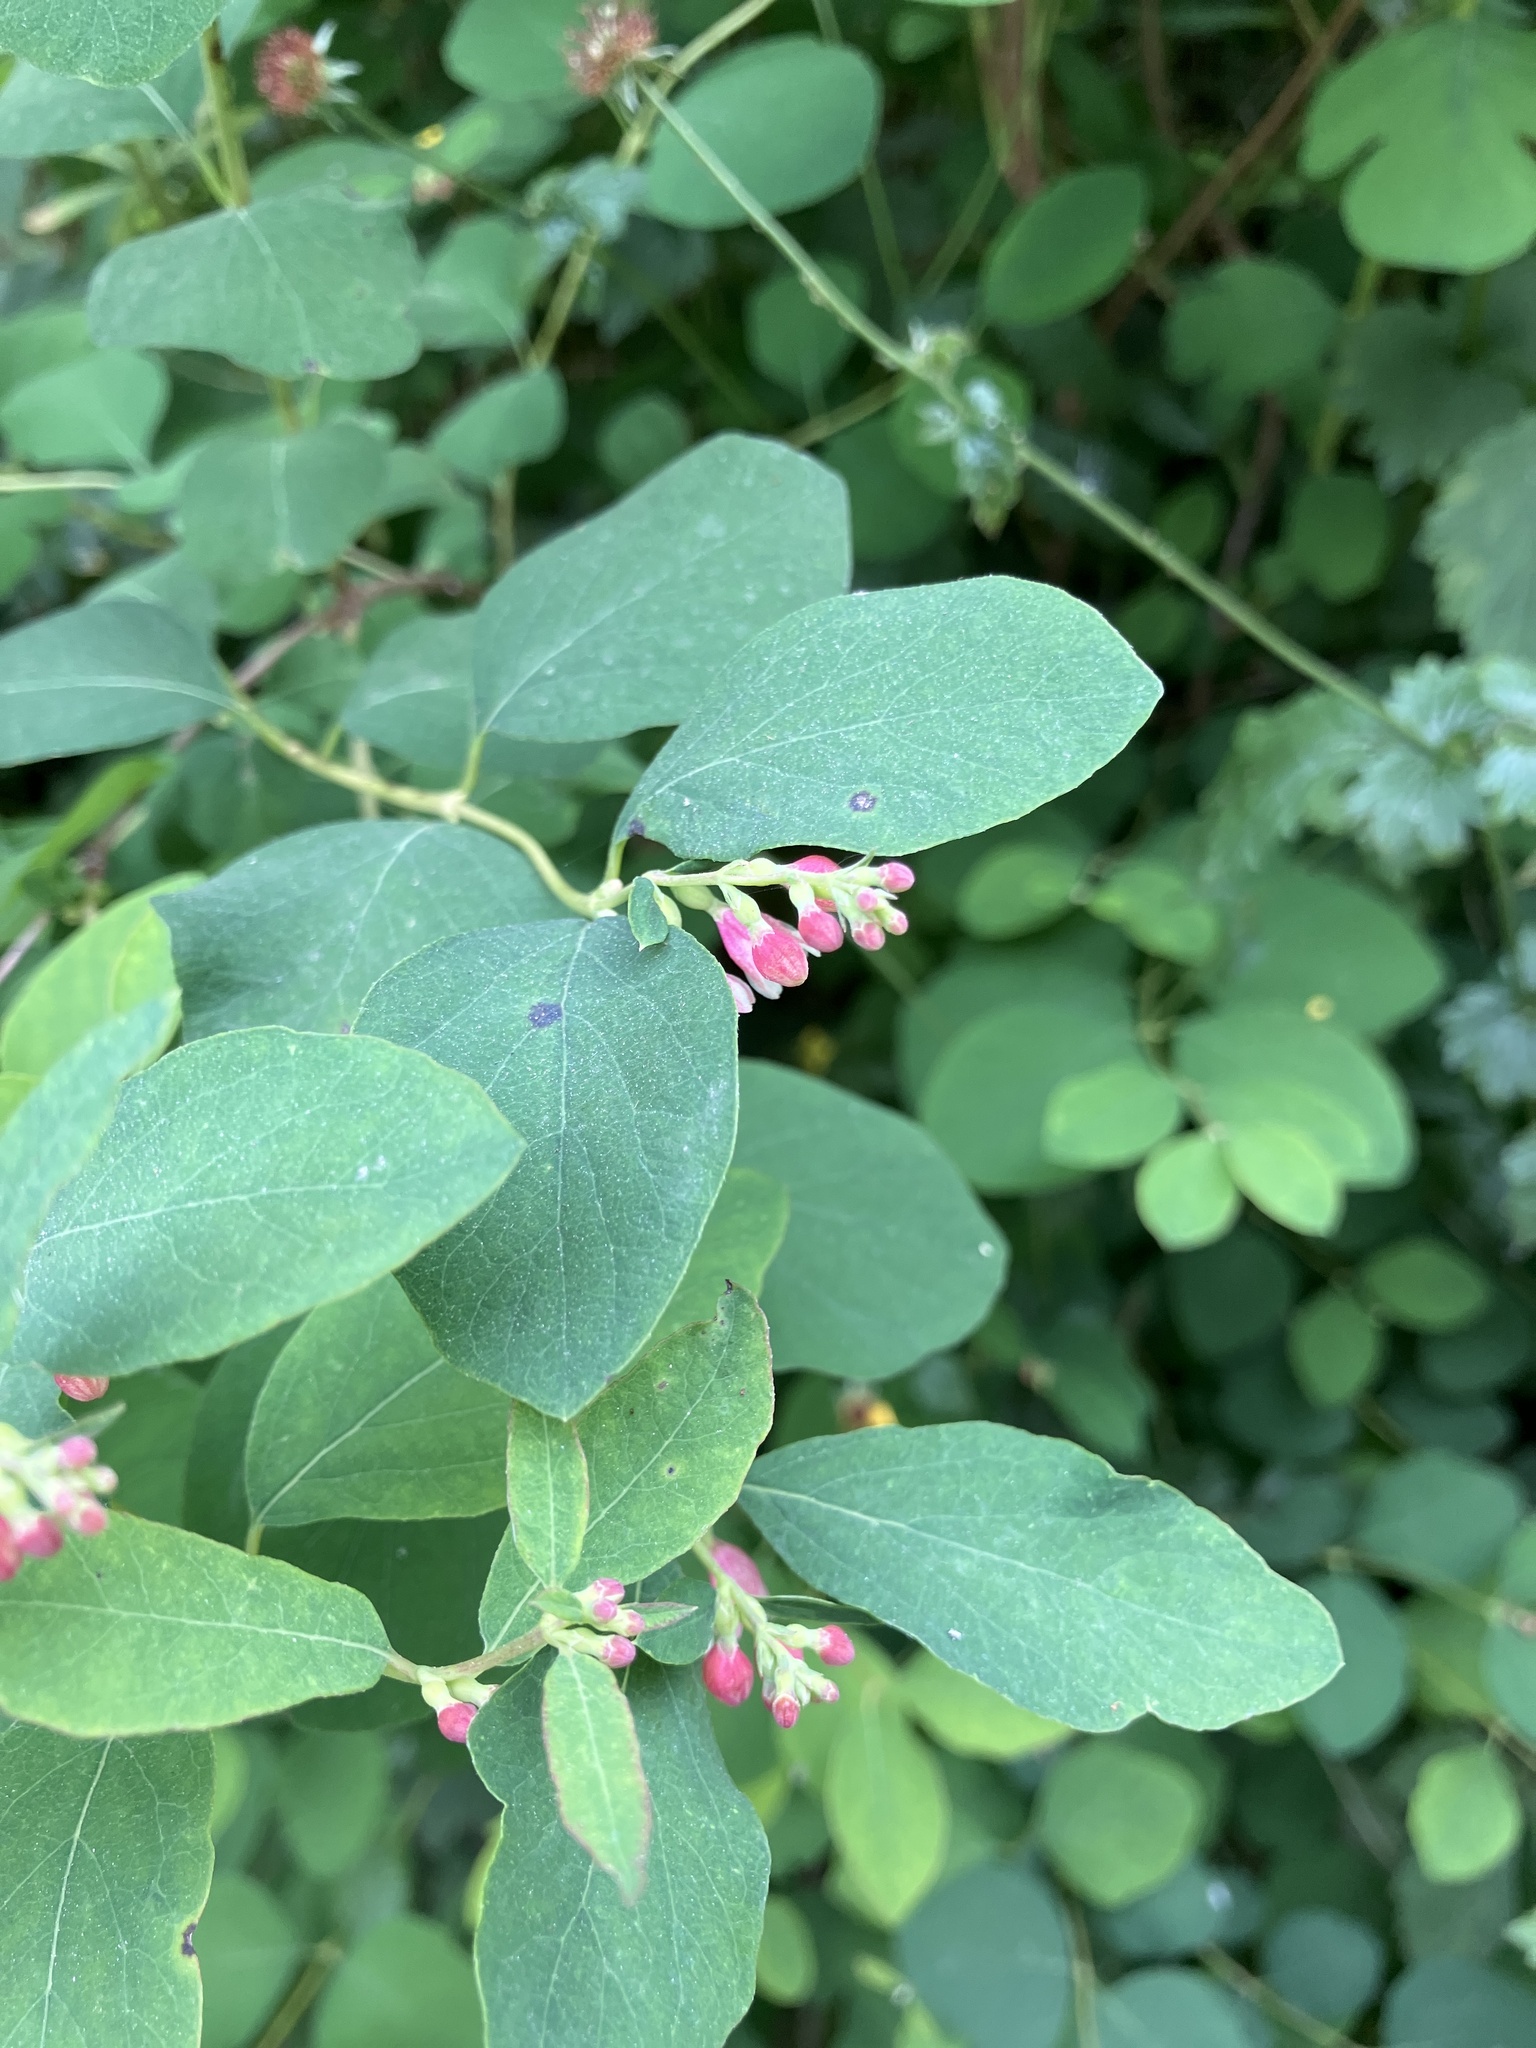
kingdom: Plantae
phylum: Tracheophyta
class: Magnoliopsida
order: Dipsacales
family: Caprifoliaceae
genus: Symphoricarpos
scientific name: Symphoricarpos albus
